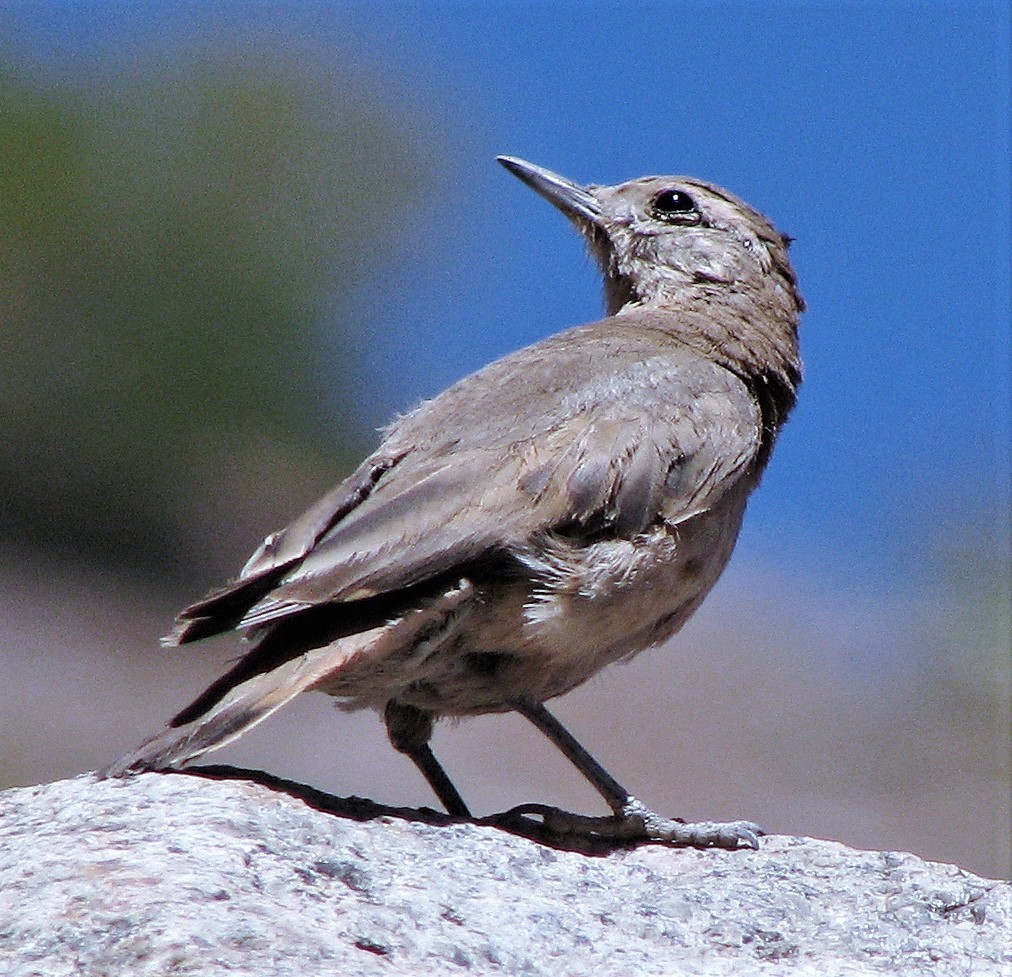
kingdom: Animalia
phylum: Chordata
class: Aves
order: Passeriformes
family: Furnariidae
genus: Geositta
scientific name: Geositta rufipennis
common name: Rufous-banded miner
